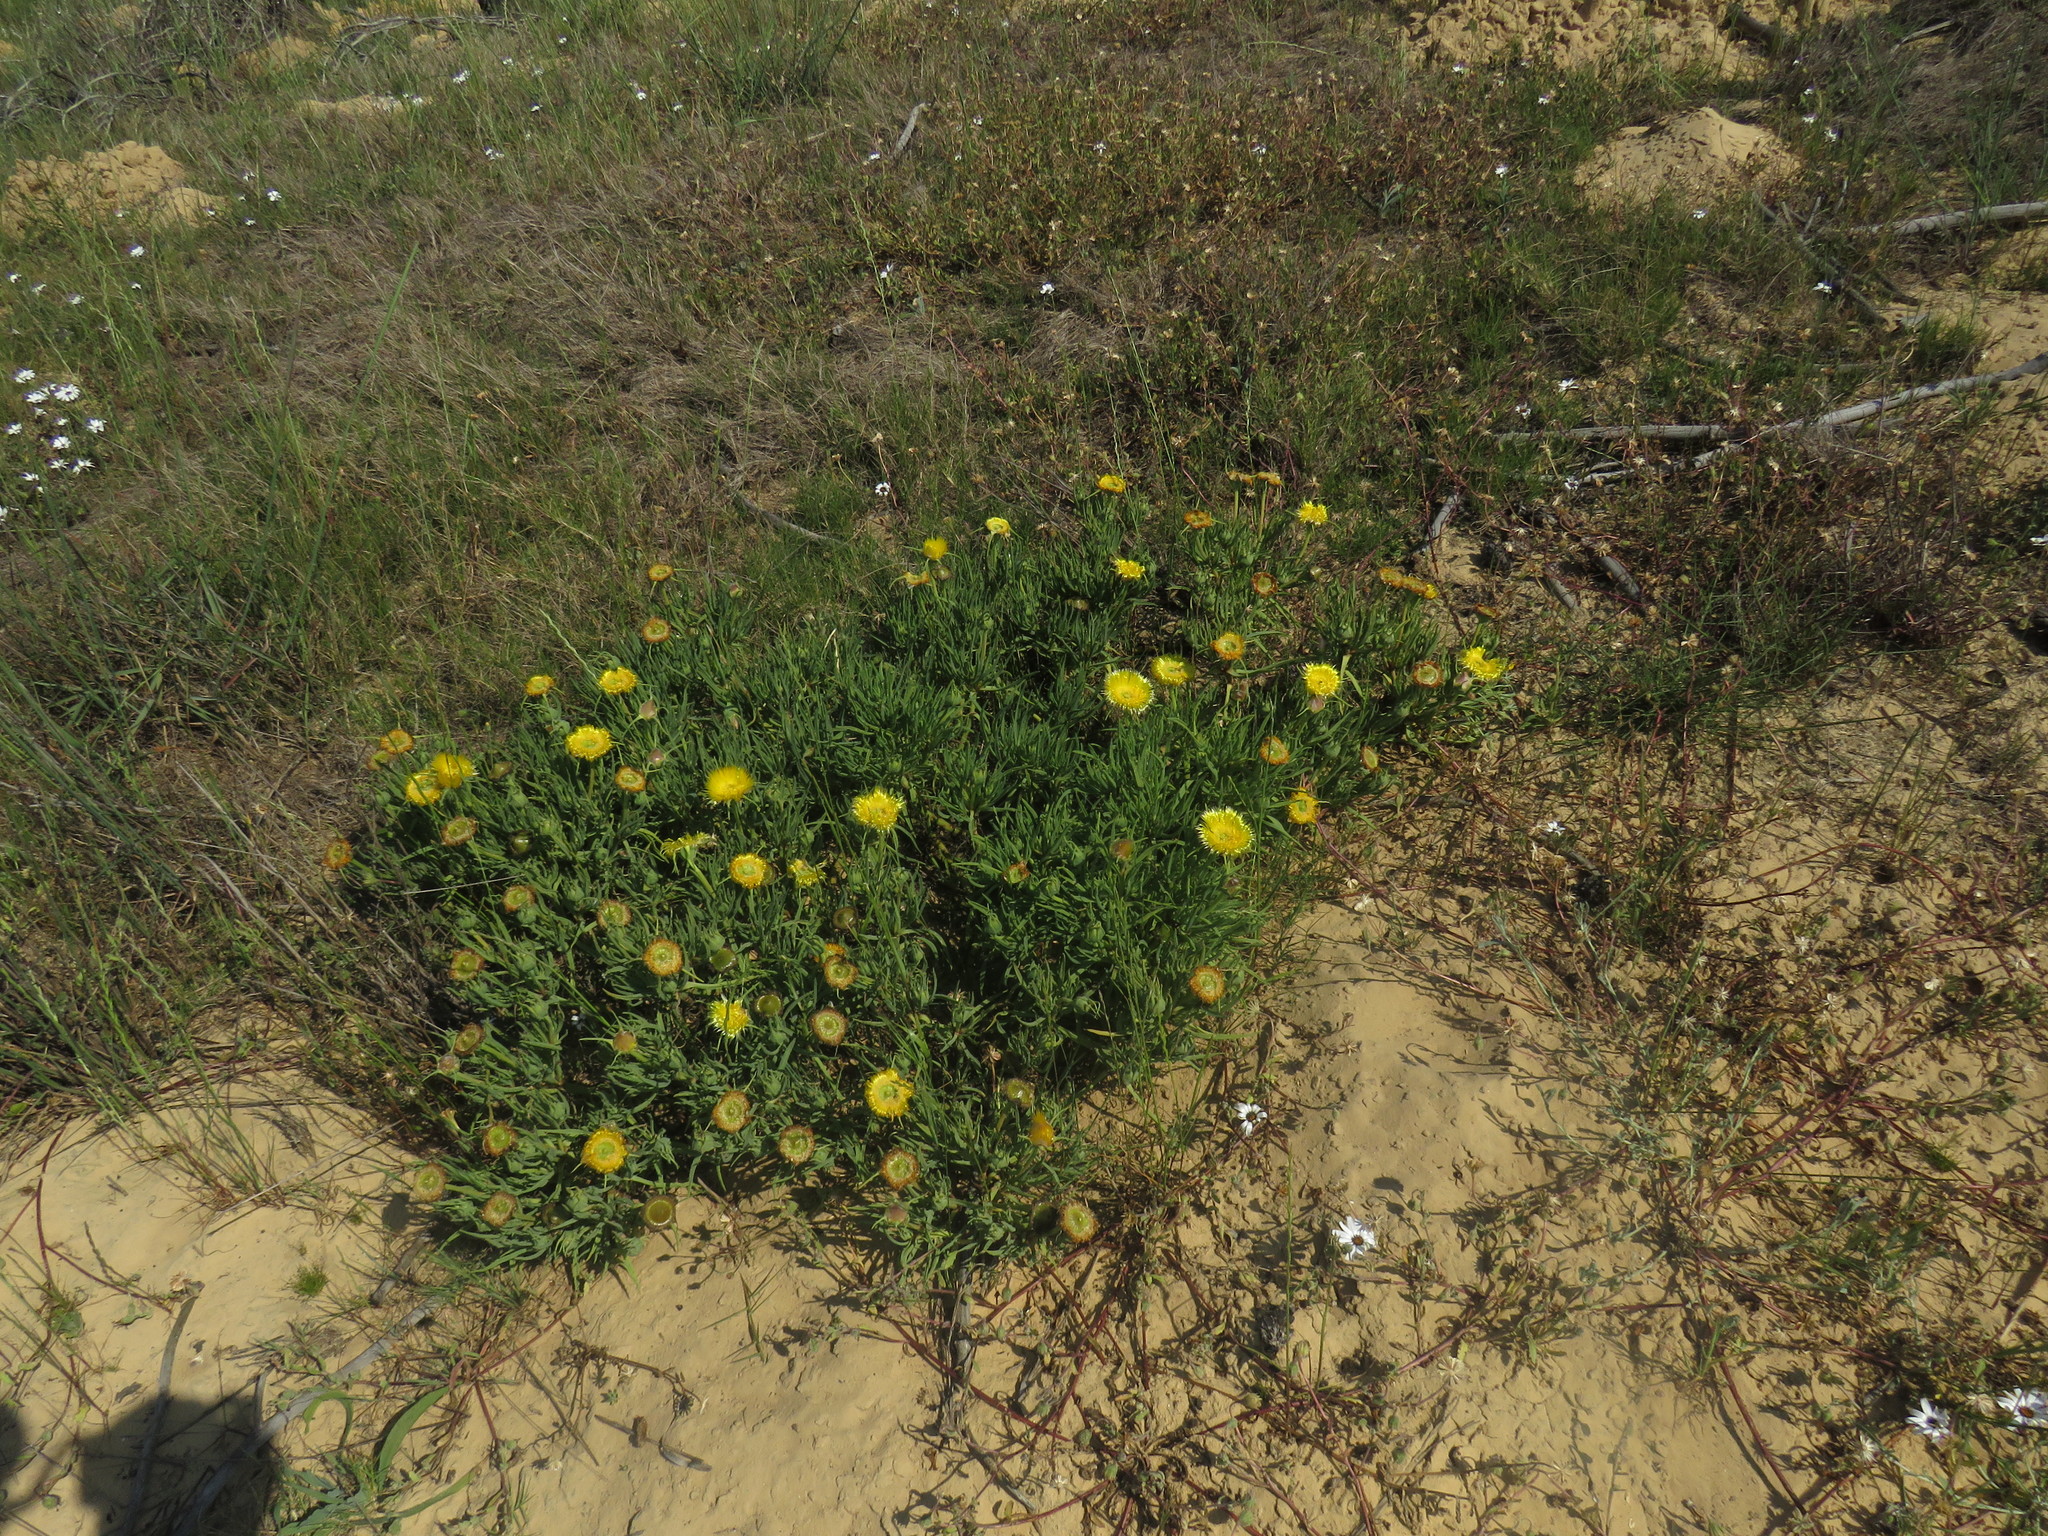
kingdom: Plantae
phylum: Tracheophyta
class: Magnoliopsida
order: Caryophyllales
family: Aizoaceae
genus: Conicosia
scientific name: Conicosia pugioniformis
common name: Narrow-leaved iceplant
